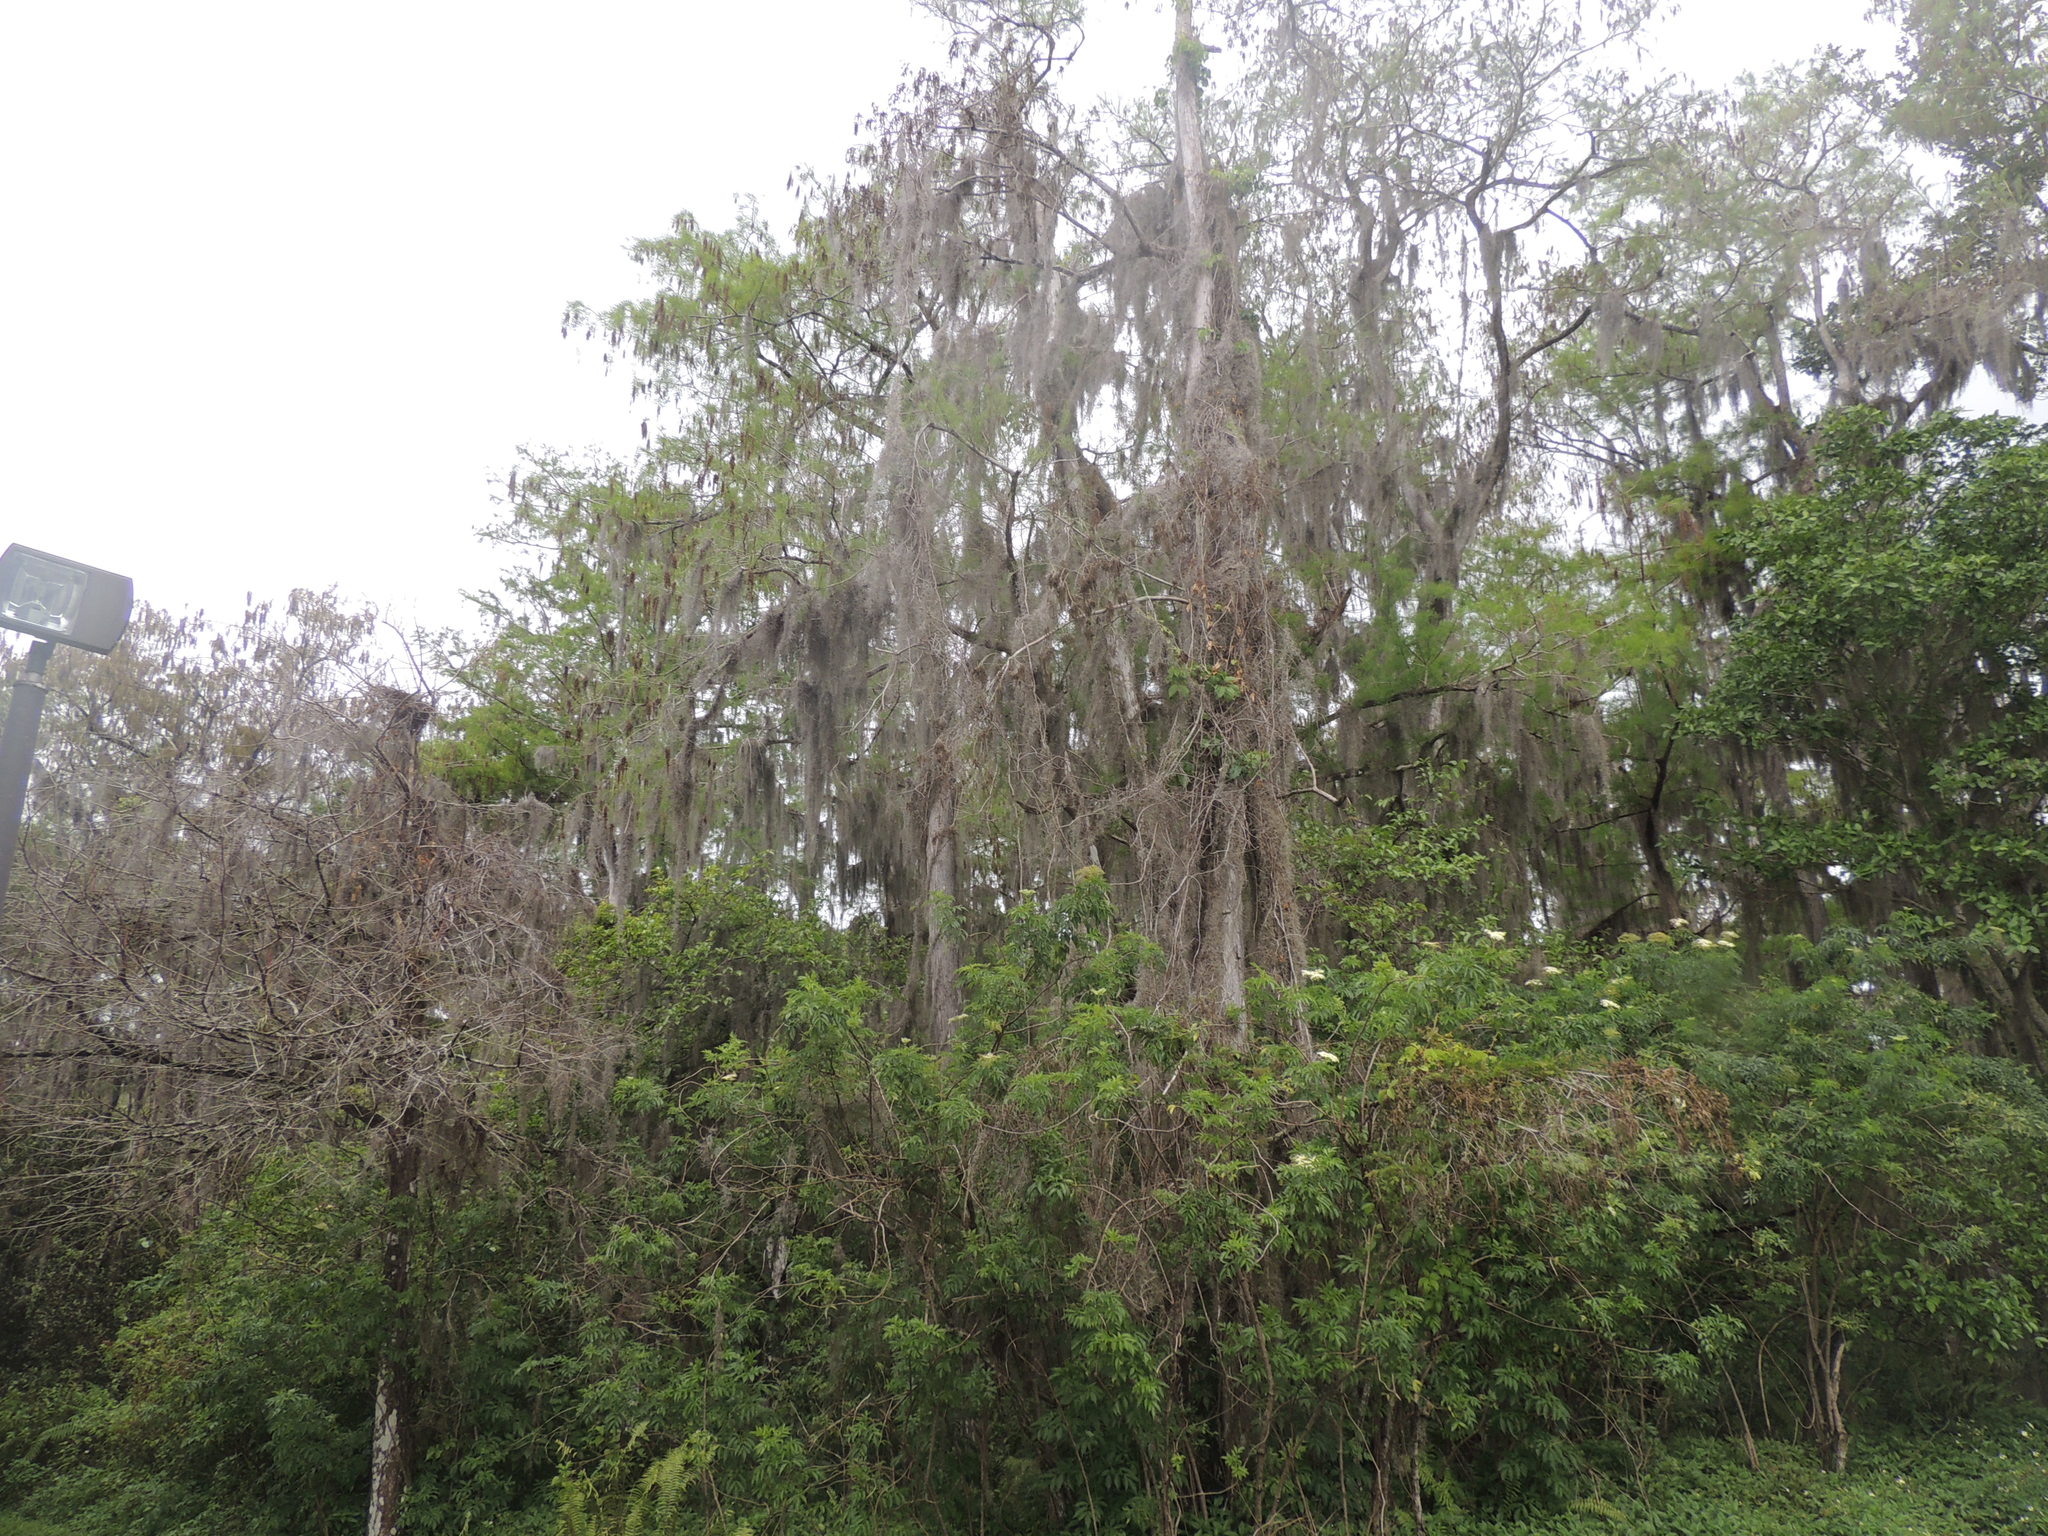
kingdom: Plantae
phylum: Tracheophyta
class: Liliopsida
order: Poales
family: Bromeliaceae
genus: Tillandsia
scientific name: Tillandsia usneoides
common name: Spanish moss
